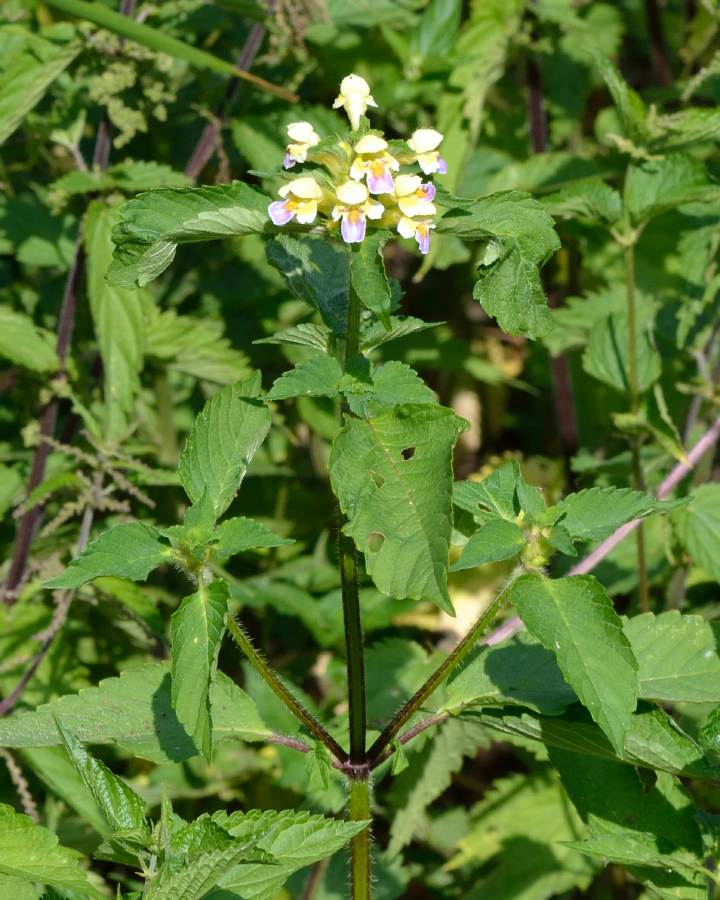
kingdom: Plantae
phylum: Tracheophyta
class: Magnoliopsida
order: Lamiales
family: Lamiaceae
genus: Galeopsis
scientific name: Galeopsis speciosa
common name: Large-flowered hemp-nettle
